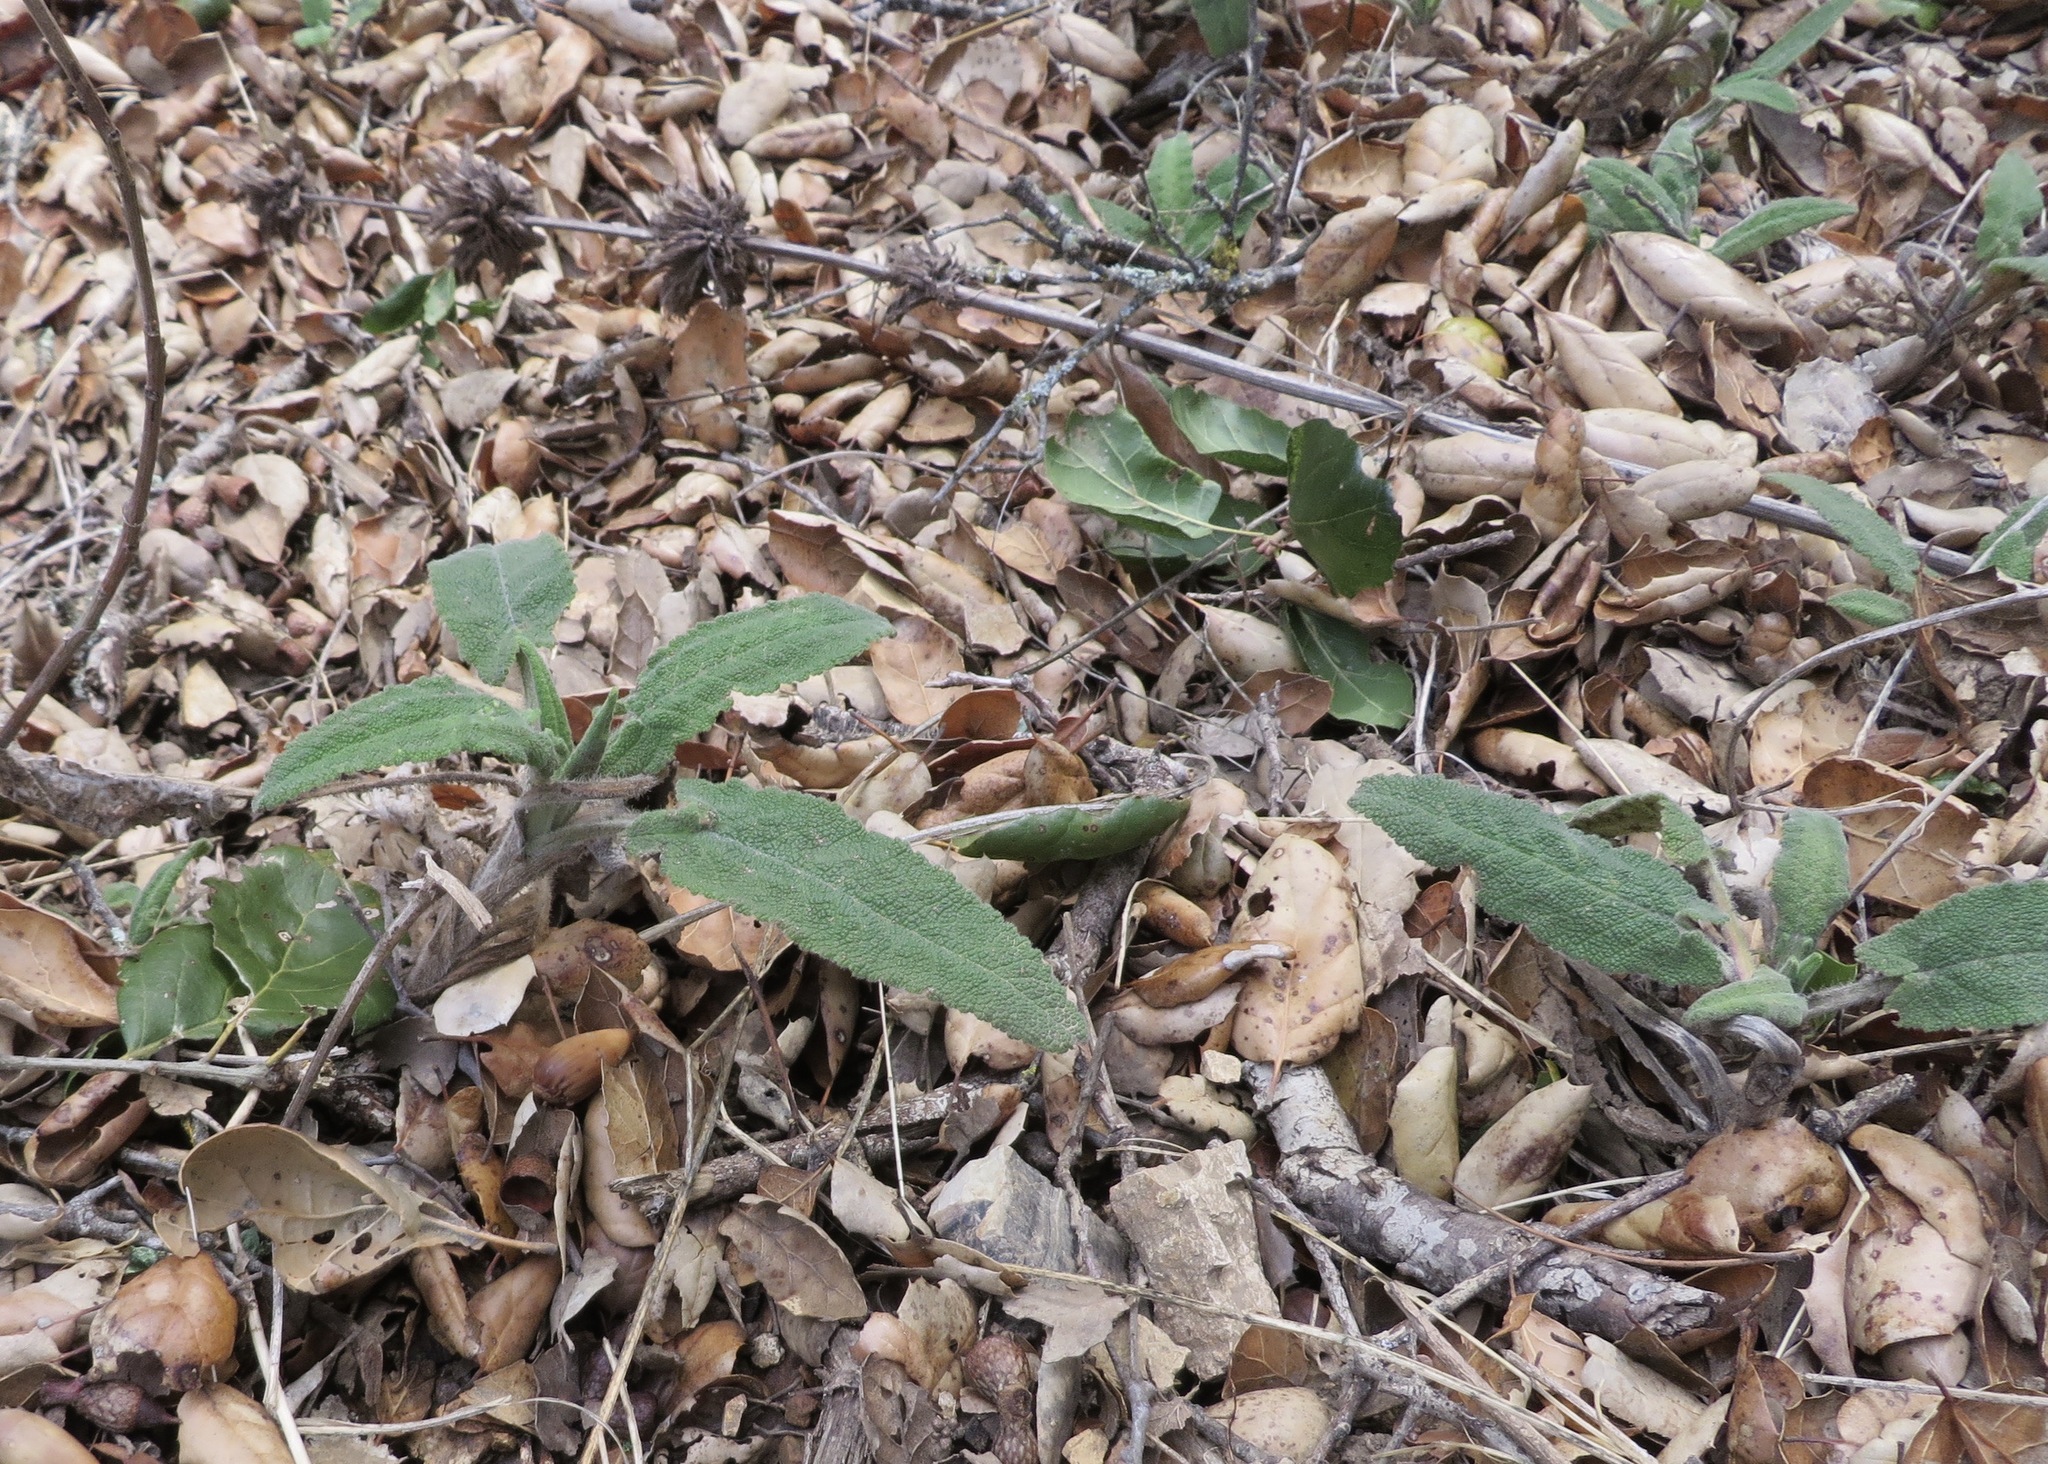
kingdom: Plantae
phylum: Tracheophyta
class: Magnoliopsida
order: Lamiales
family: Lamiaceae
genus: Salvia
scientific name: Salvia spathacea
